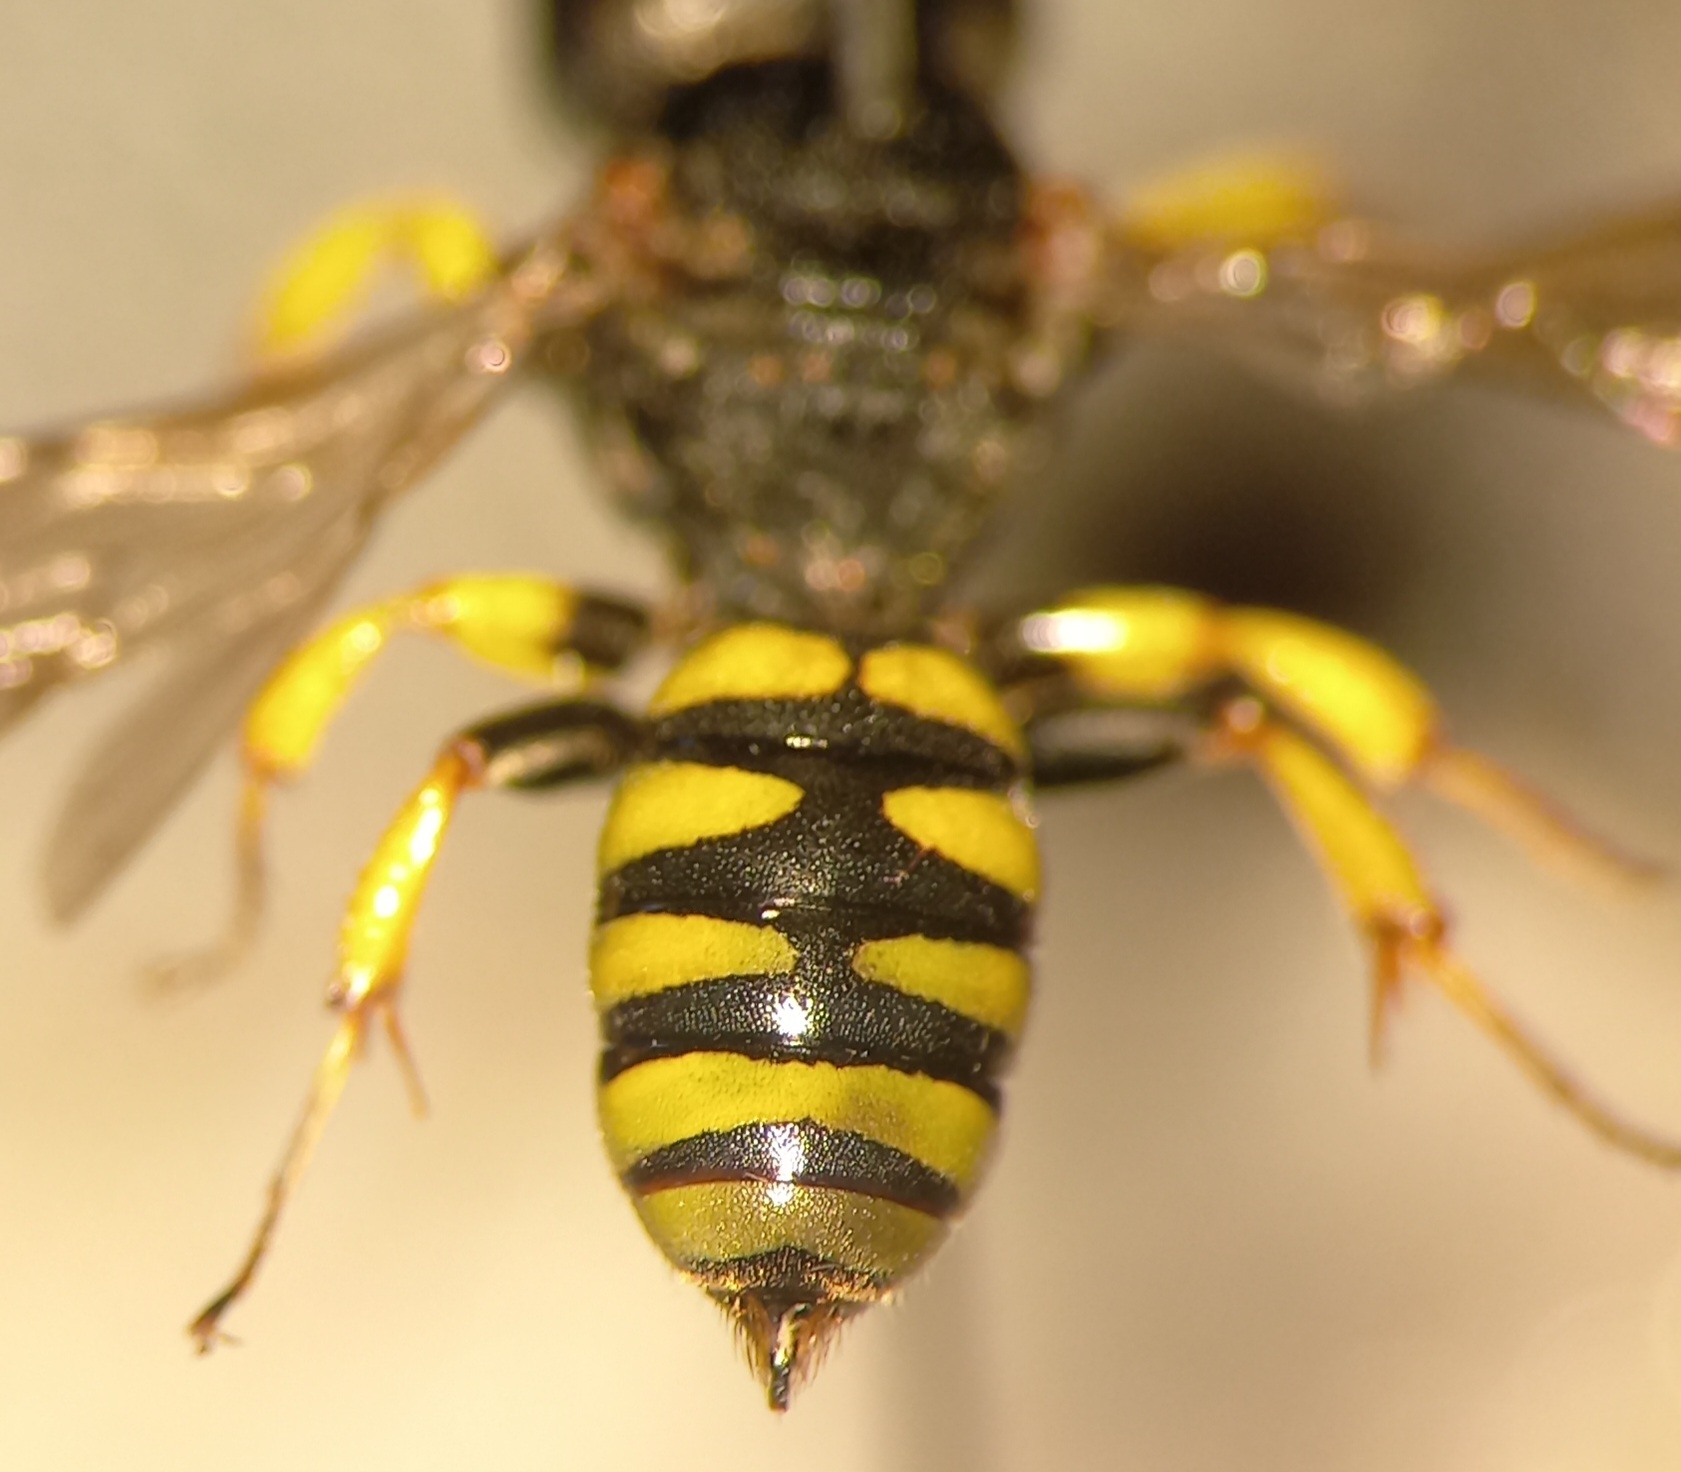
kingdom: Animalia
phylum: Arthropoda
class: Insecta
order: Hymenoptera
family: Crabronidae
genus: Lestica
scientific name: Lestica clypeata
